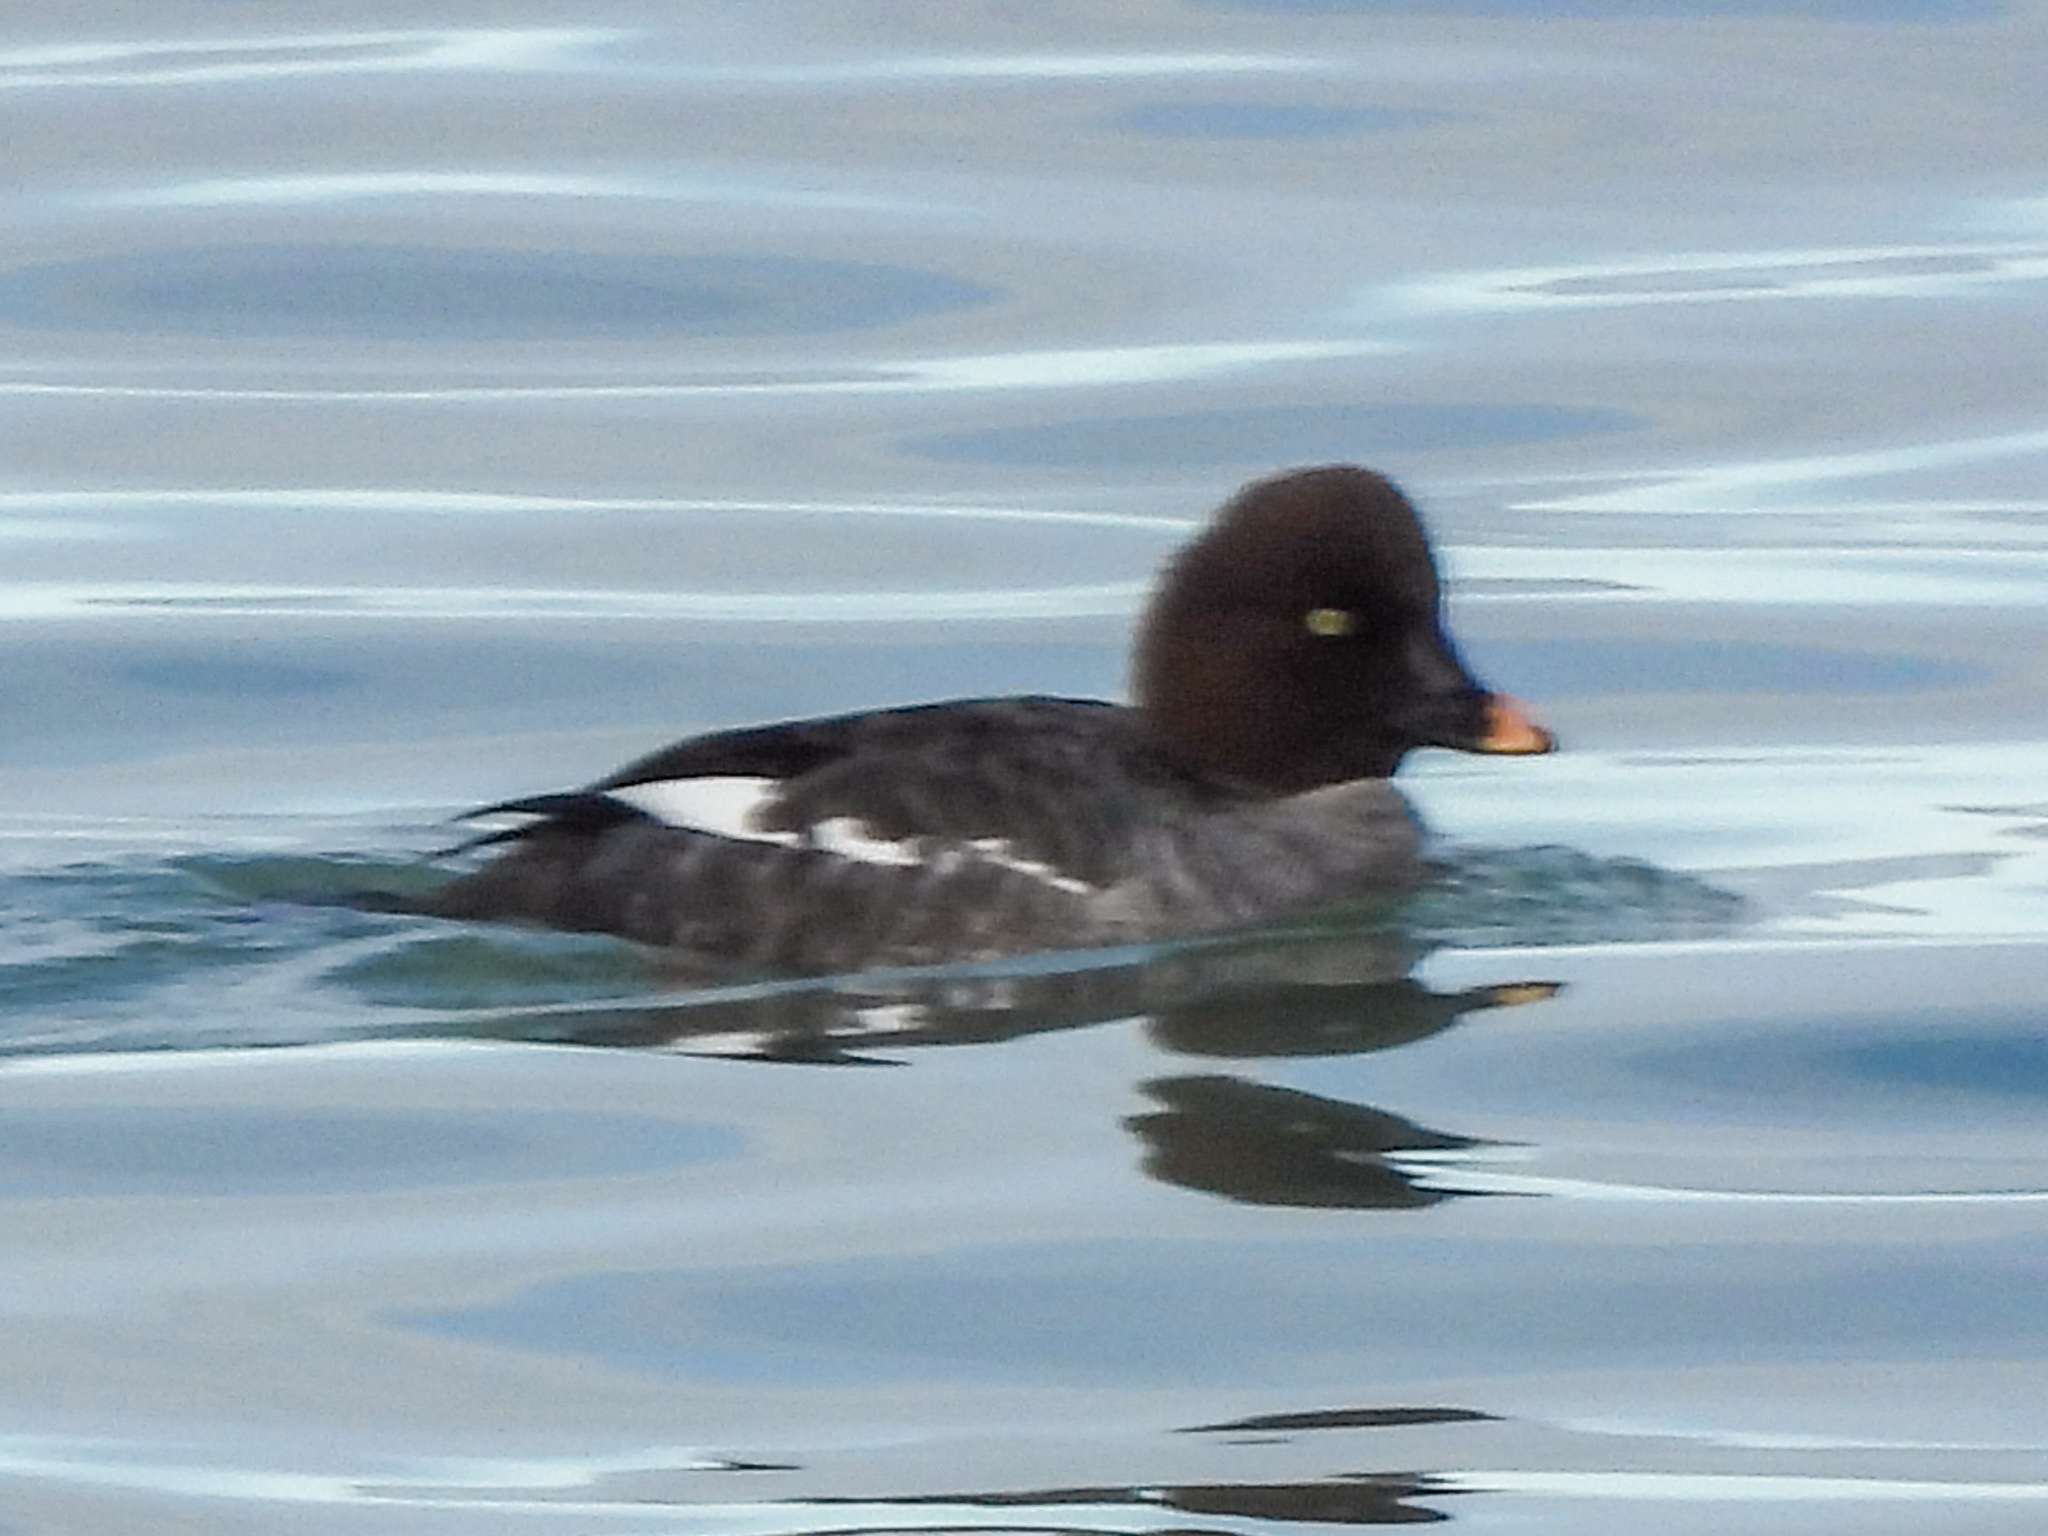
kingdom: Animalia
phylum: Chordata
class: Aves
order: Anseriformes
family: Anatidae
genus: Bucephala
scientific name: Bucephala clangula
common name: Common goldeneye
